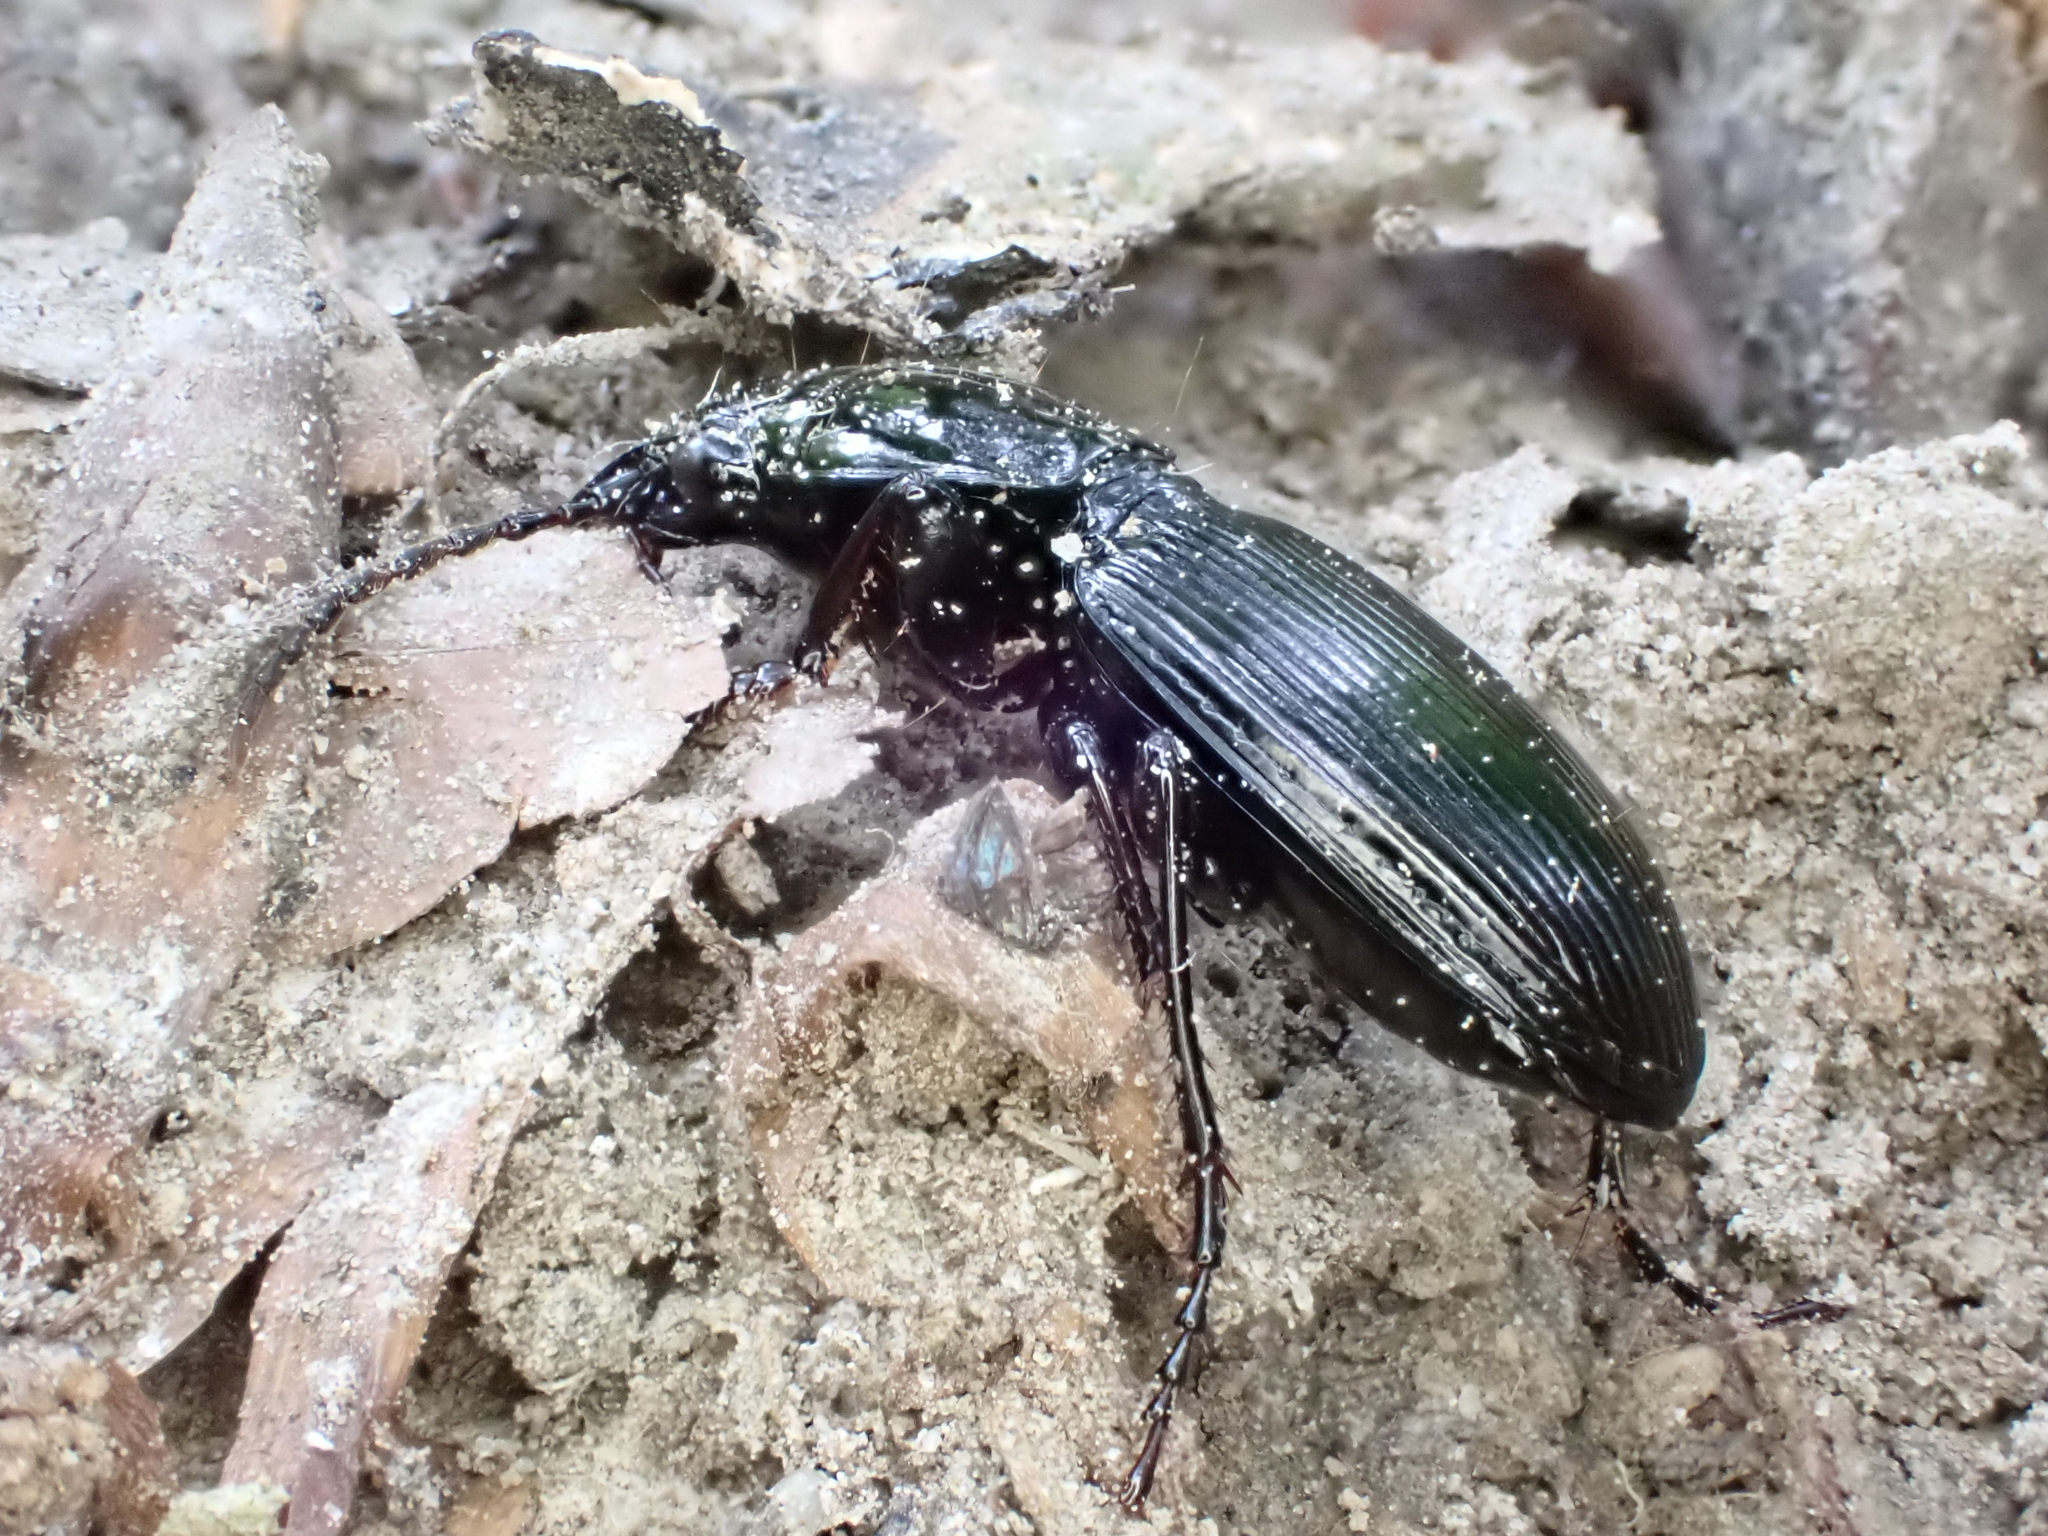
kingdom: Animalia
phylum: Arthropoda
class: Insecta
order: Coleoptera
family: Carabidae
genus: Pterostichus
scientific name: Pterostichus madidus
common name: Black clock
